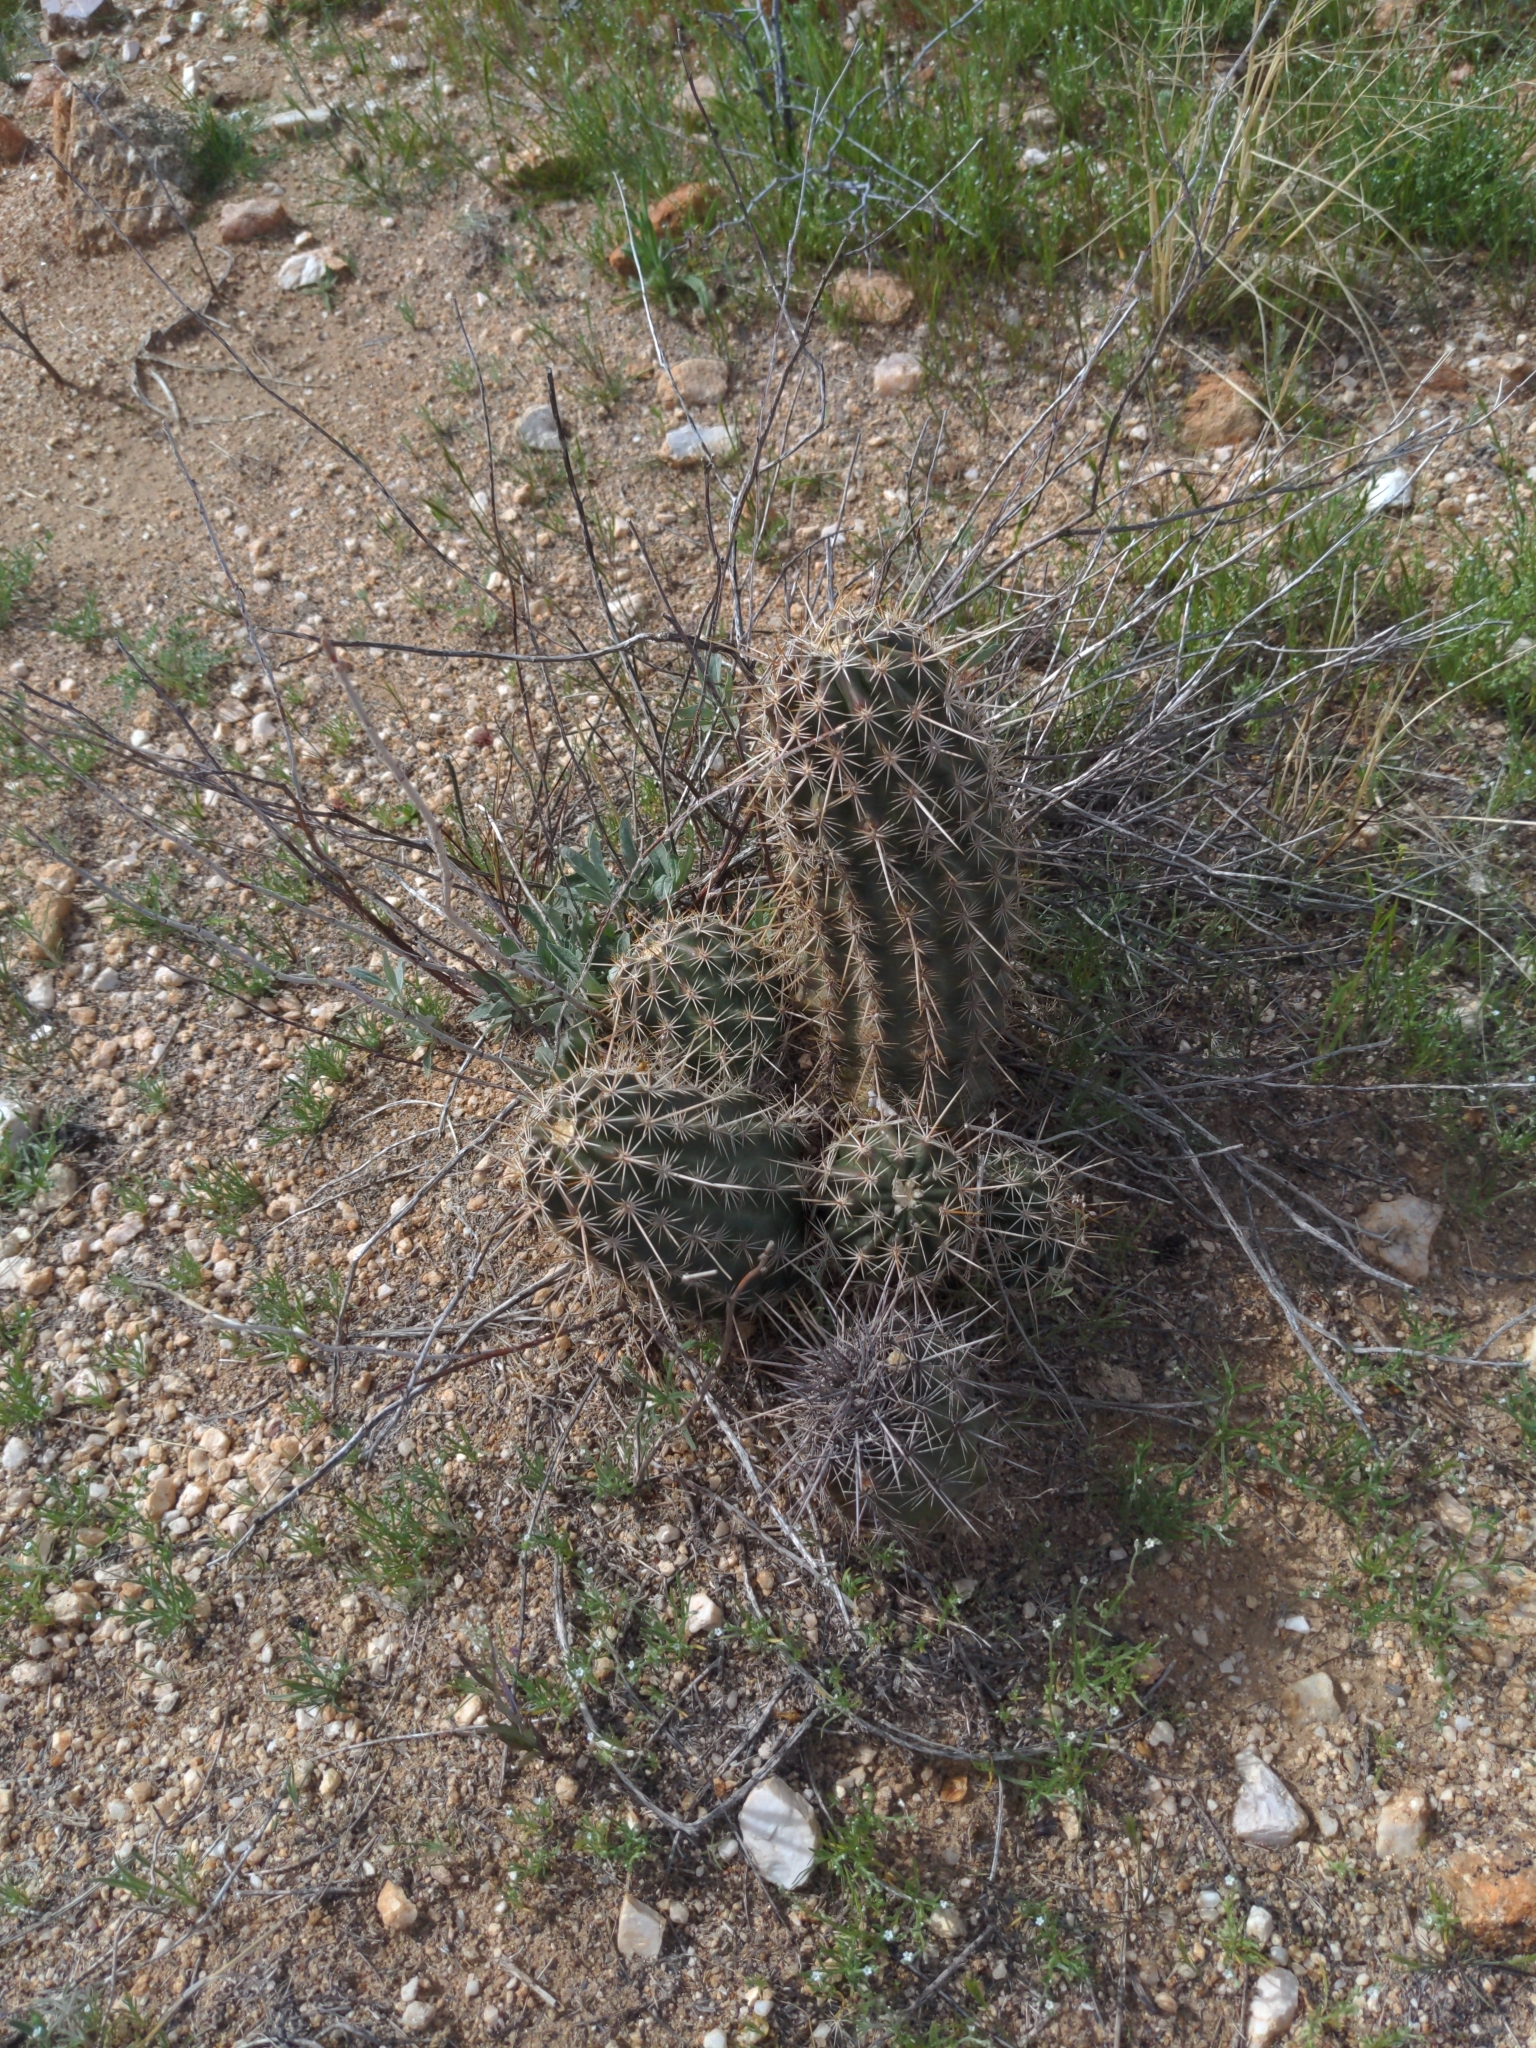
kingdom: Plantae
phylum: Tracheophyta
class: Magnoliopsida
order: Caryophyllales
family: Cactaceae
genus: Echinocereus
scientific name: Echinocereus fasciculatus
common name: Bundle hedgehog
